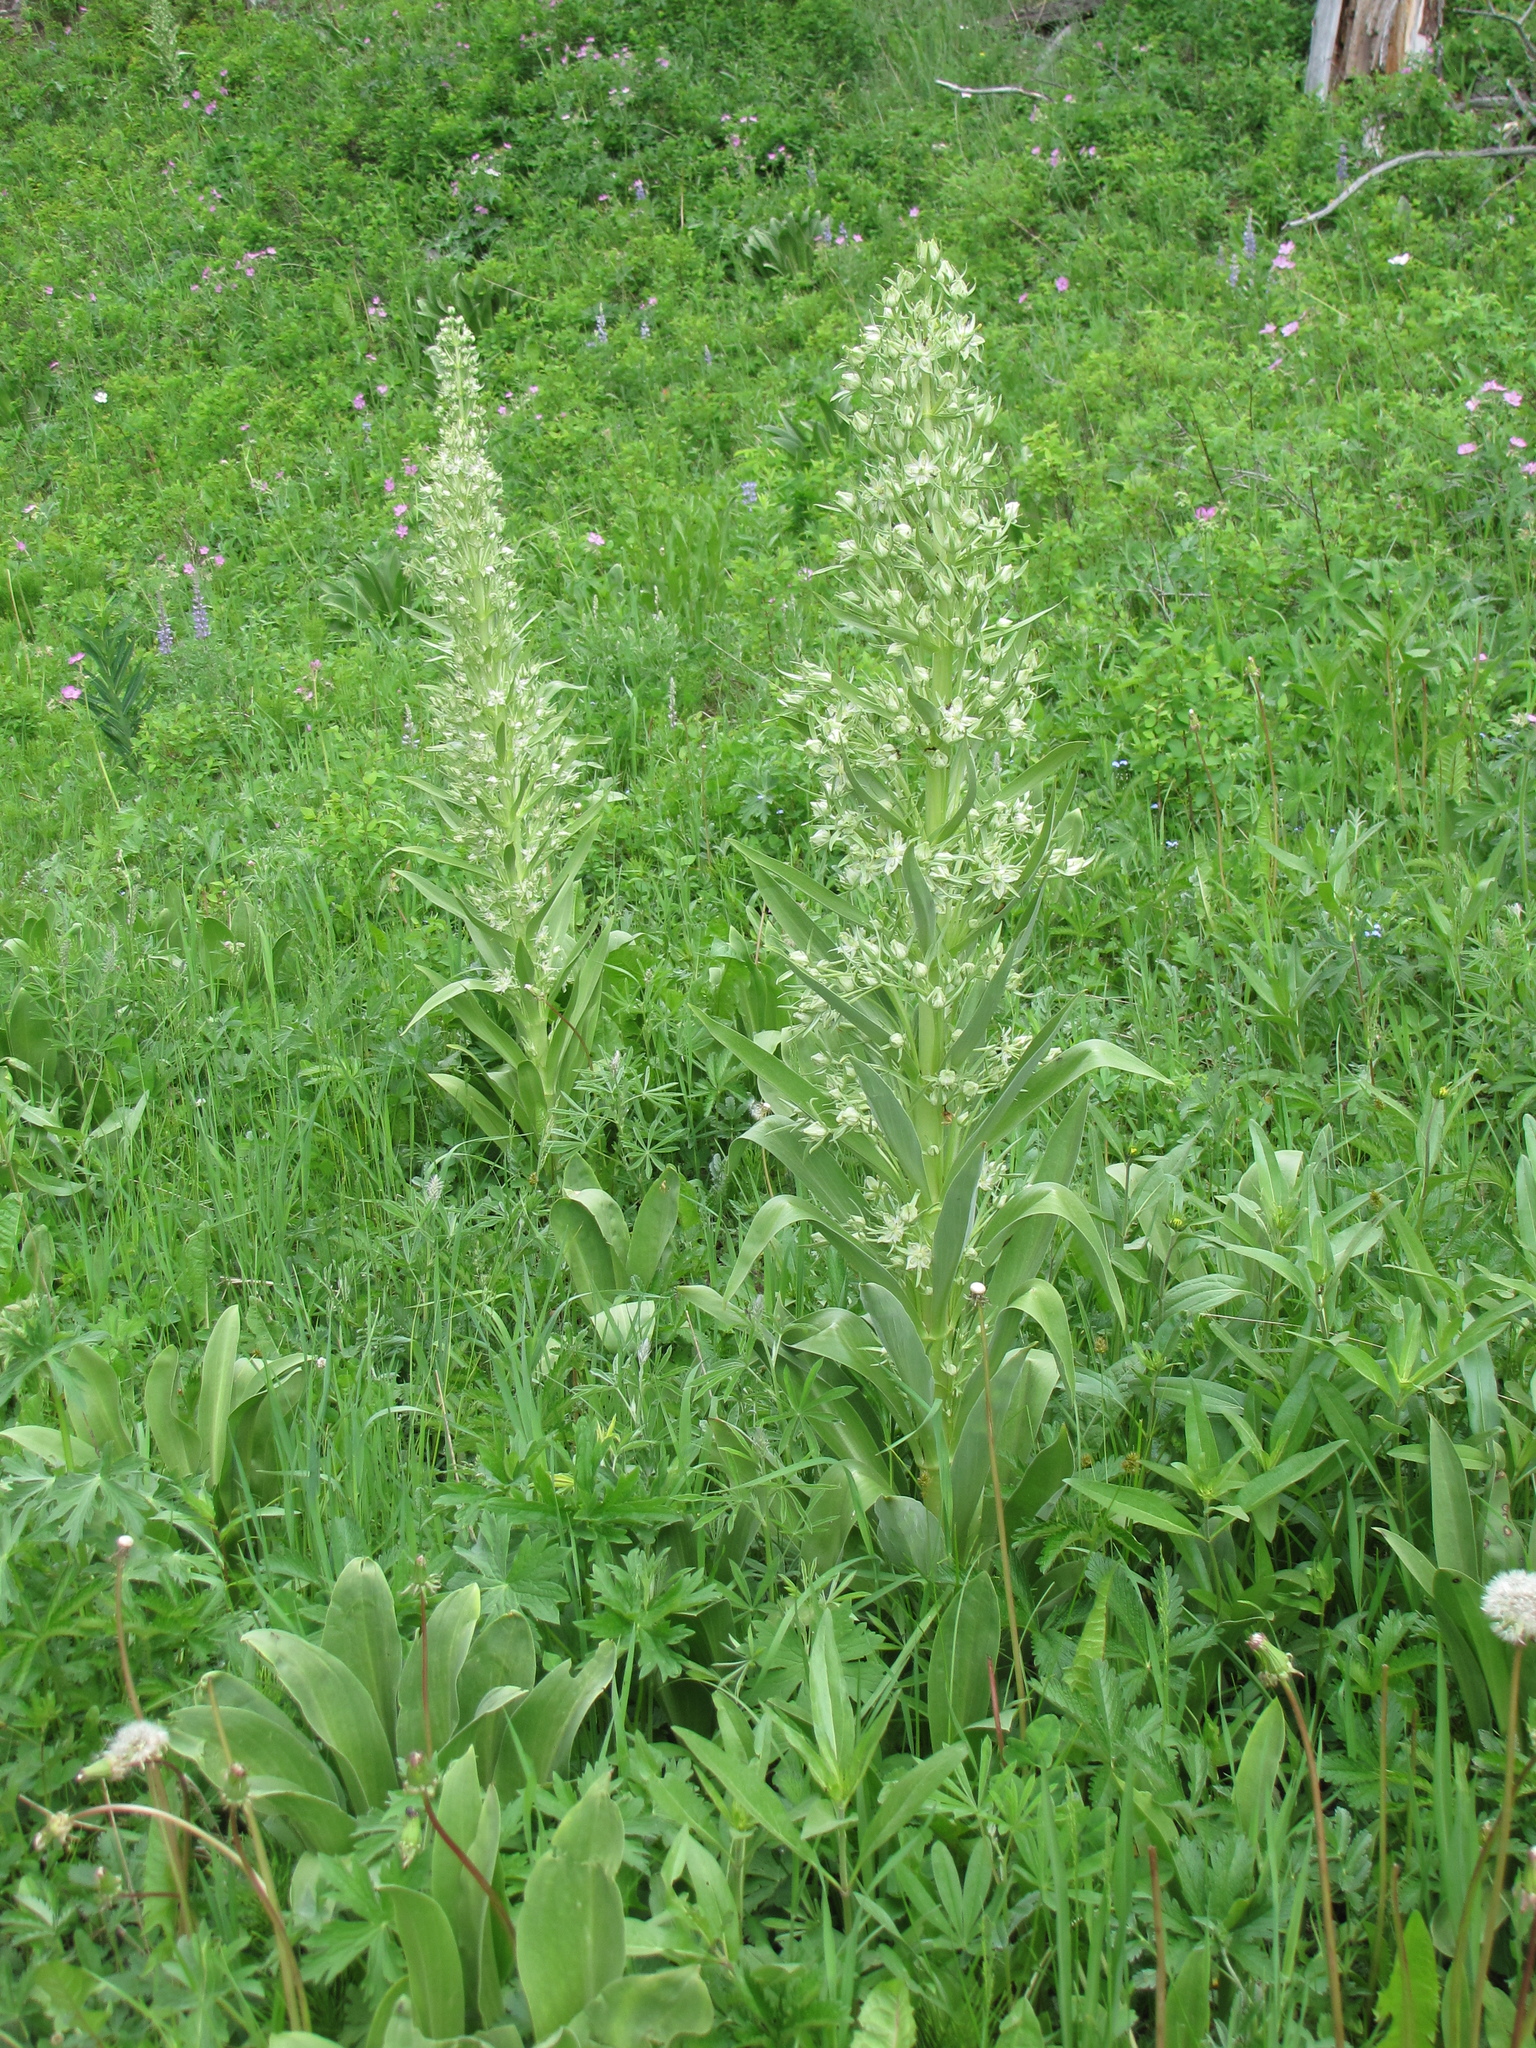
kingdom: Plantae
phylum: Tracheophyta
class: Magnoliopsida
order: Gentianales
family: Gentianaceae
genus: Frasera
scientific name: Frasera speciosa
